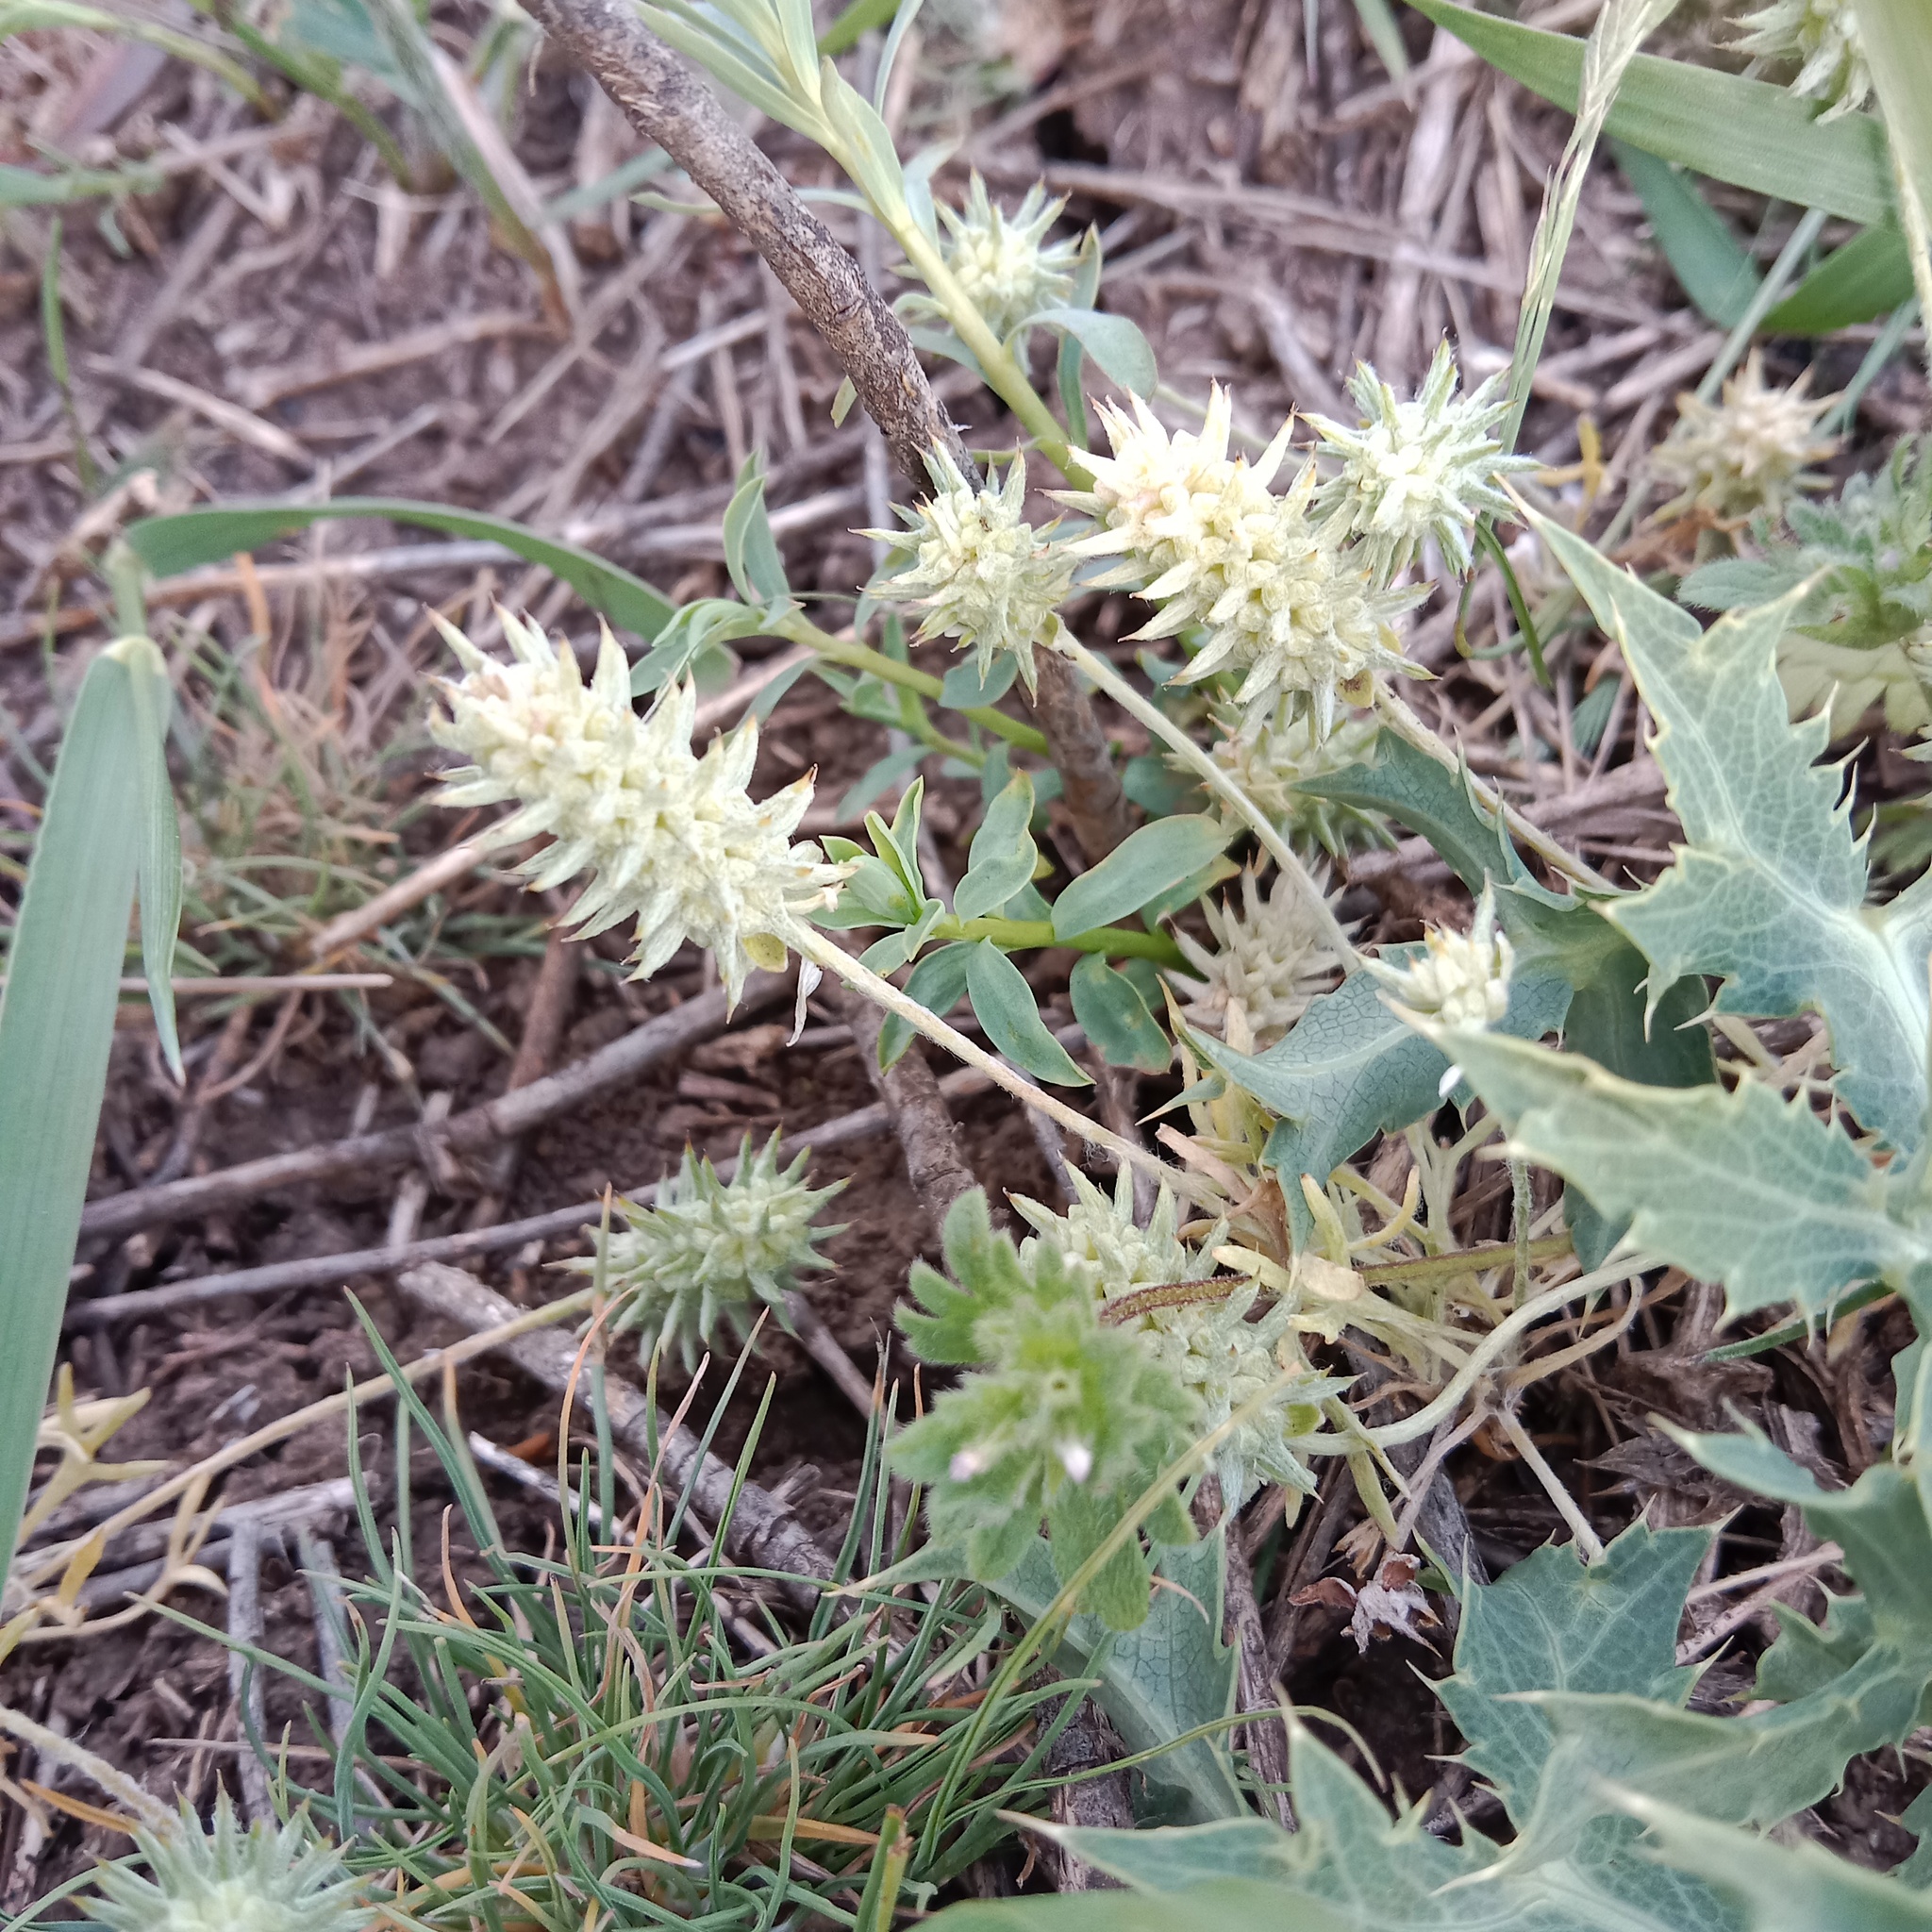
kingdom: Plantae
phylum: Tracheophyta
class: Magnoliopsida
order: Ranunculales
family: Ranunculaceae
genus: Ceratocephala
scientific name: Ceratocephala orthoceras
